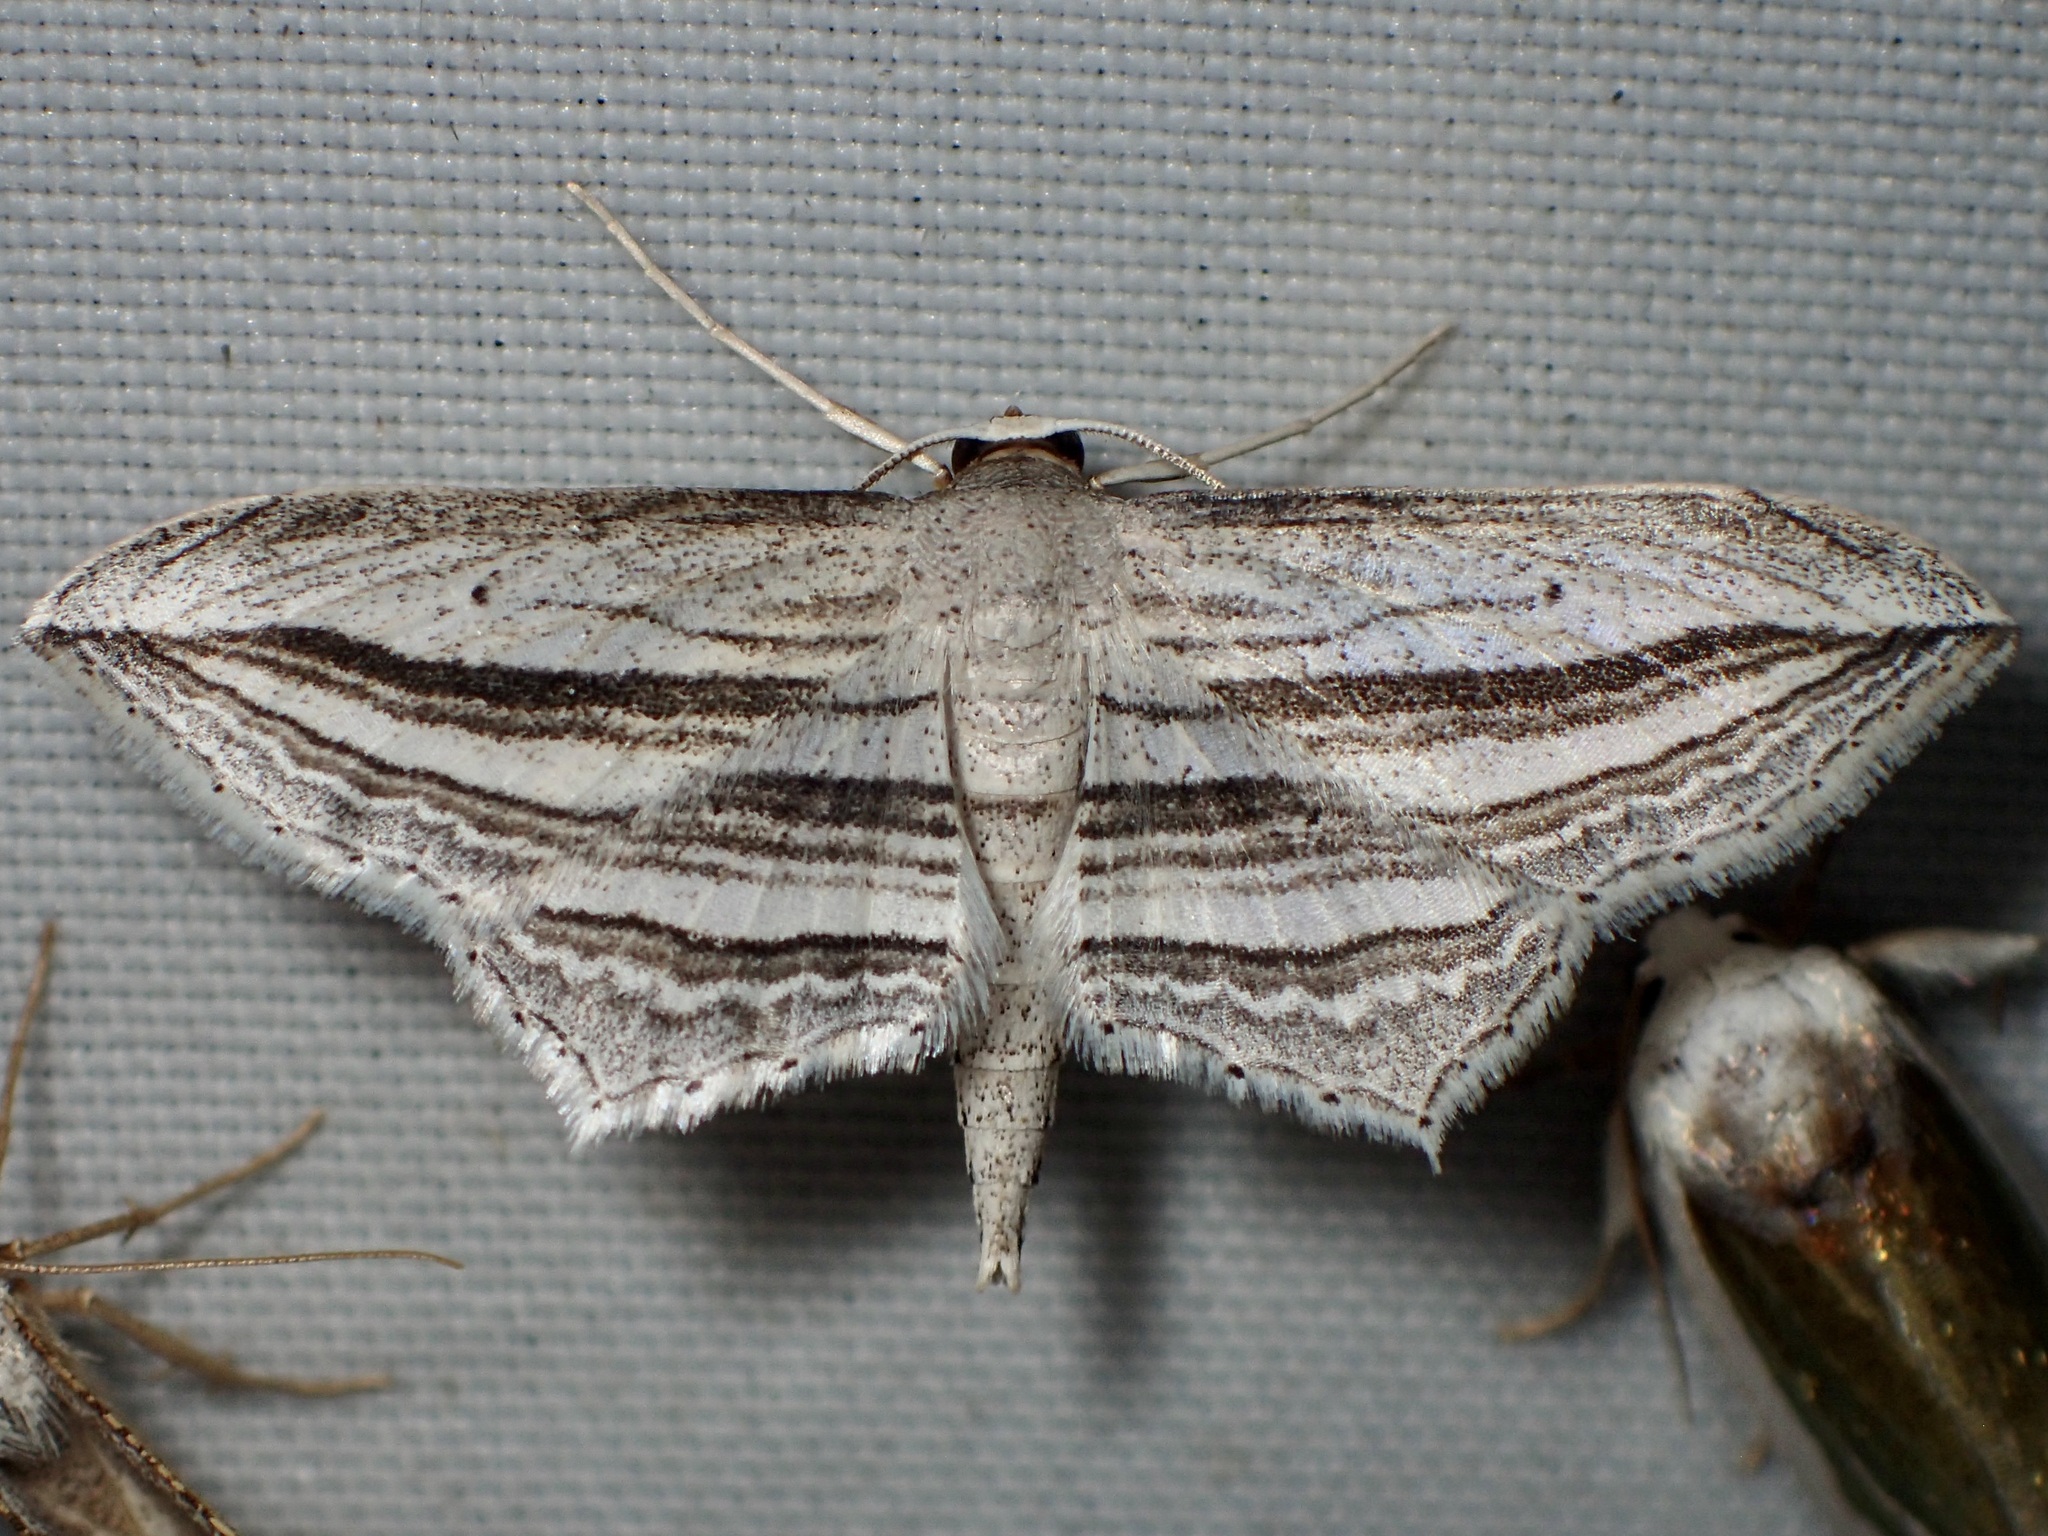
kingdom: Animalia
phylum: Arthropoda
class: Insecta
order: Lepidoptera
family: Geometridae
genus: Arcobara
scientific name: Arcobara multilineata
